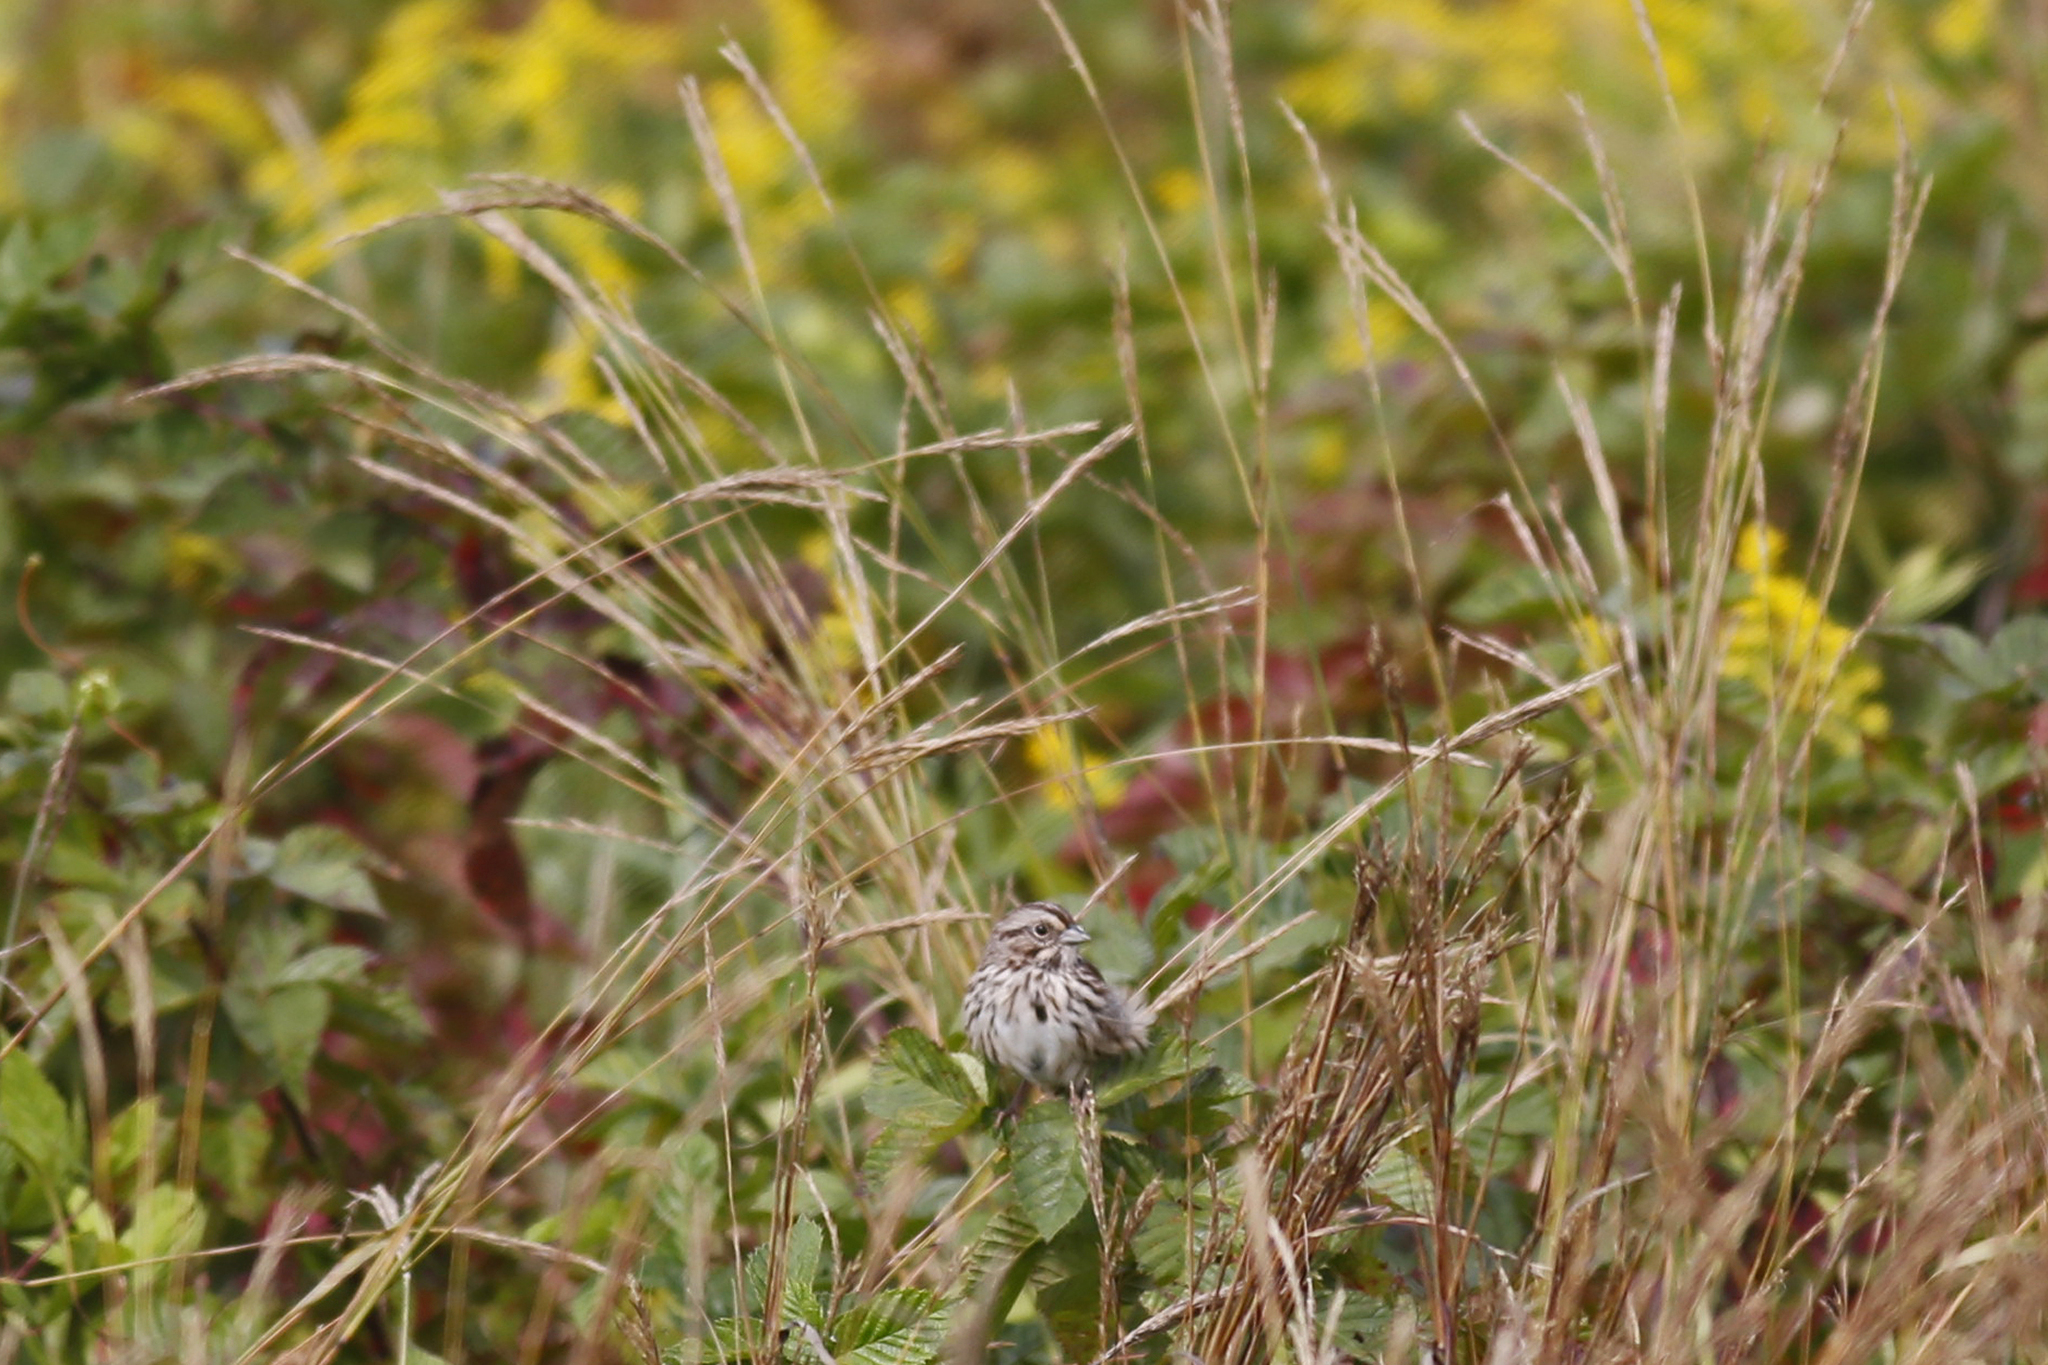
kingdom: Animalia
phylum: Chordata
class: Aves
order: Passeriformes
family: Passerellidae
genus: Melospiza
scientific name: Melospiza melodia
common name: Song sparrow
